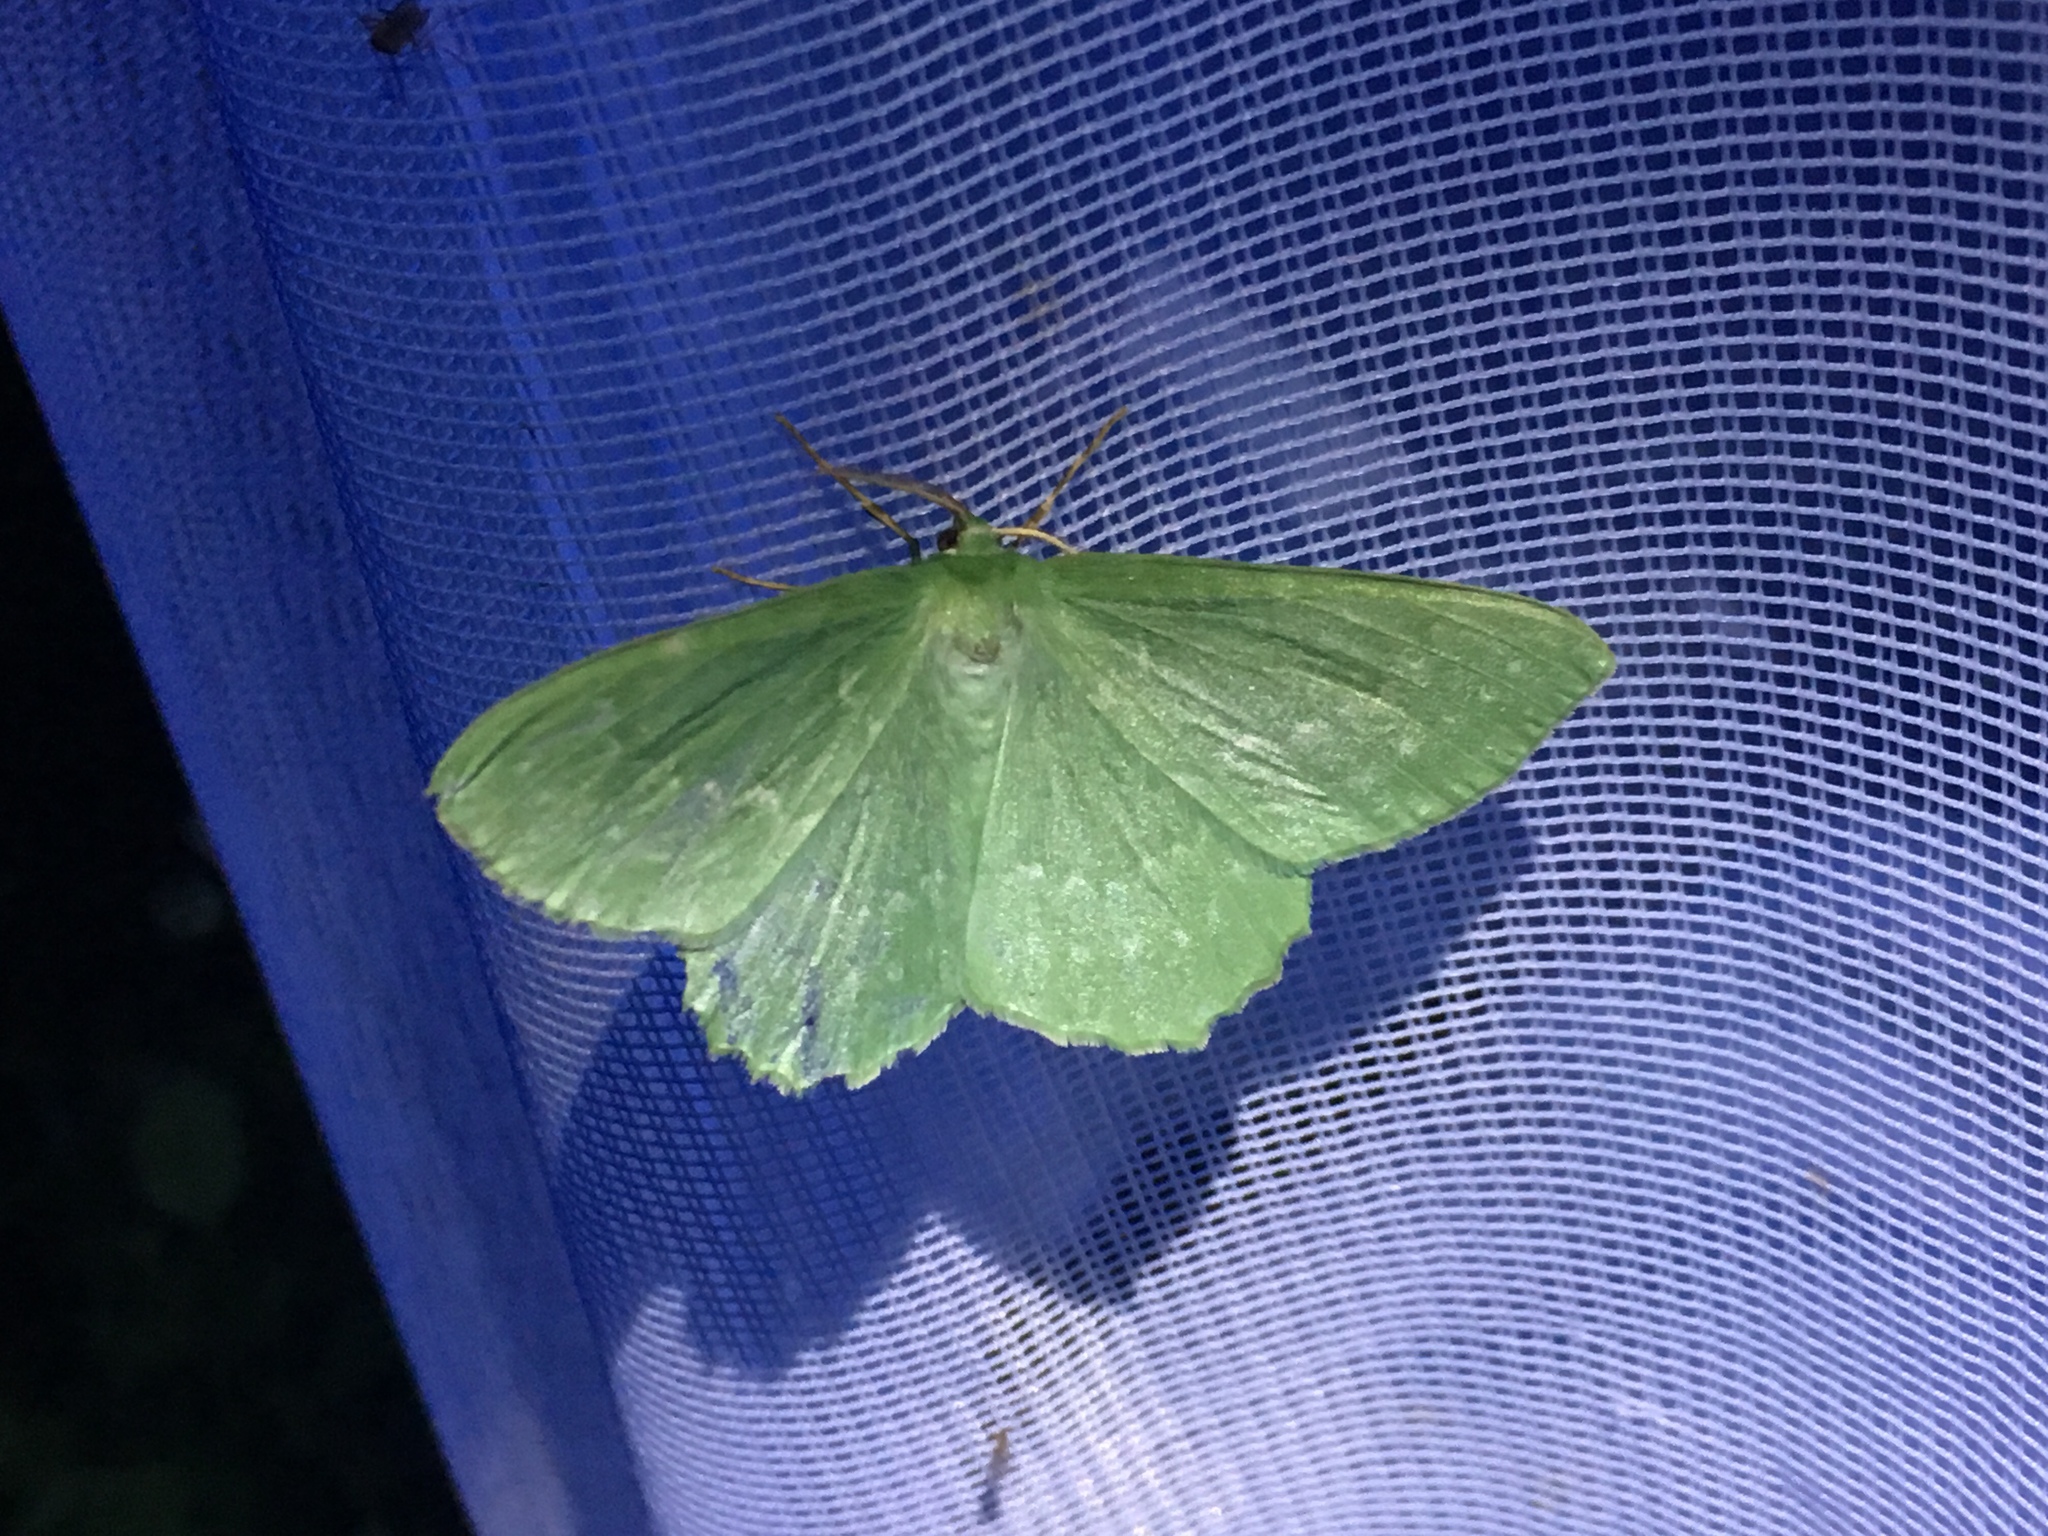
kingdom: Animalia
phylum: Arthropoda
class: Insecta
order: Lepidoptera
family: Geometridae
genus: Geometra
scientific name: Geometra papilionaria
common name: Large emerald
